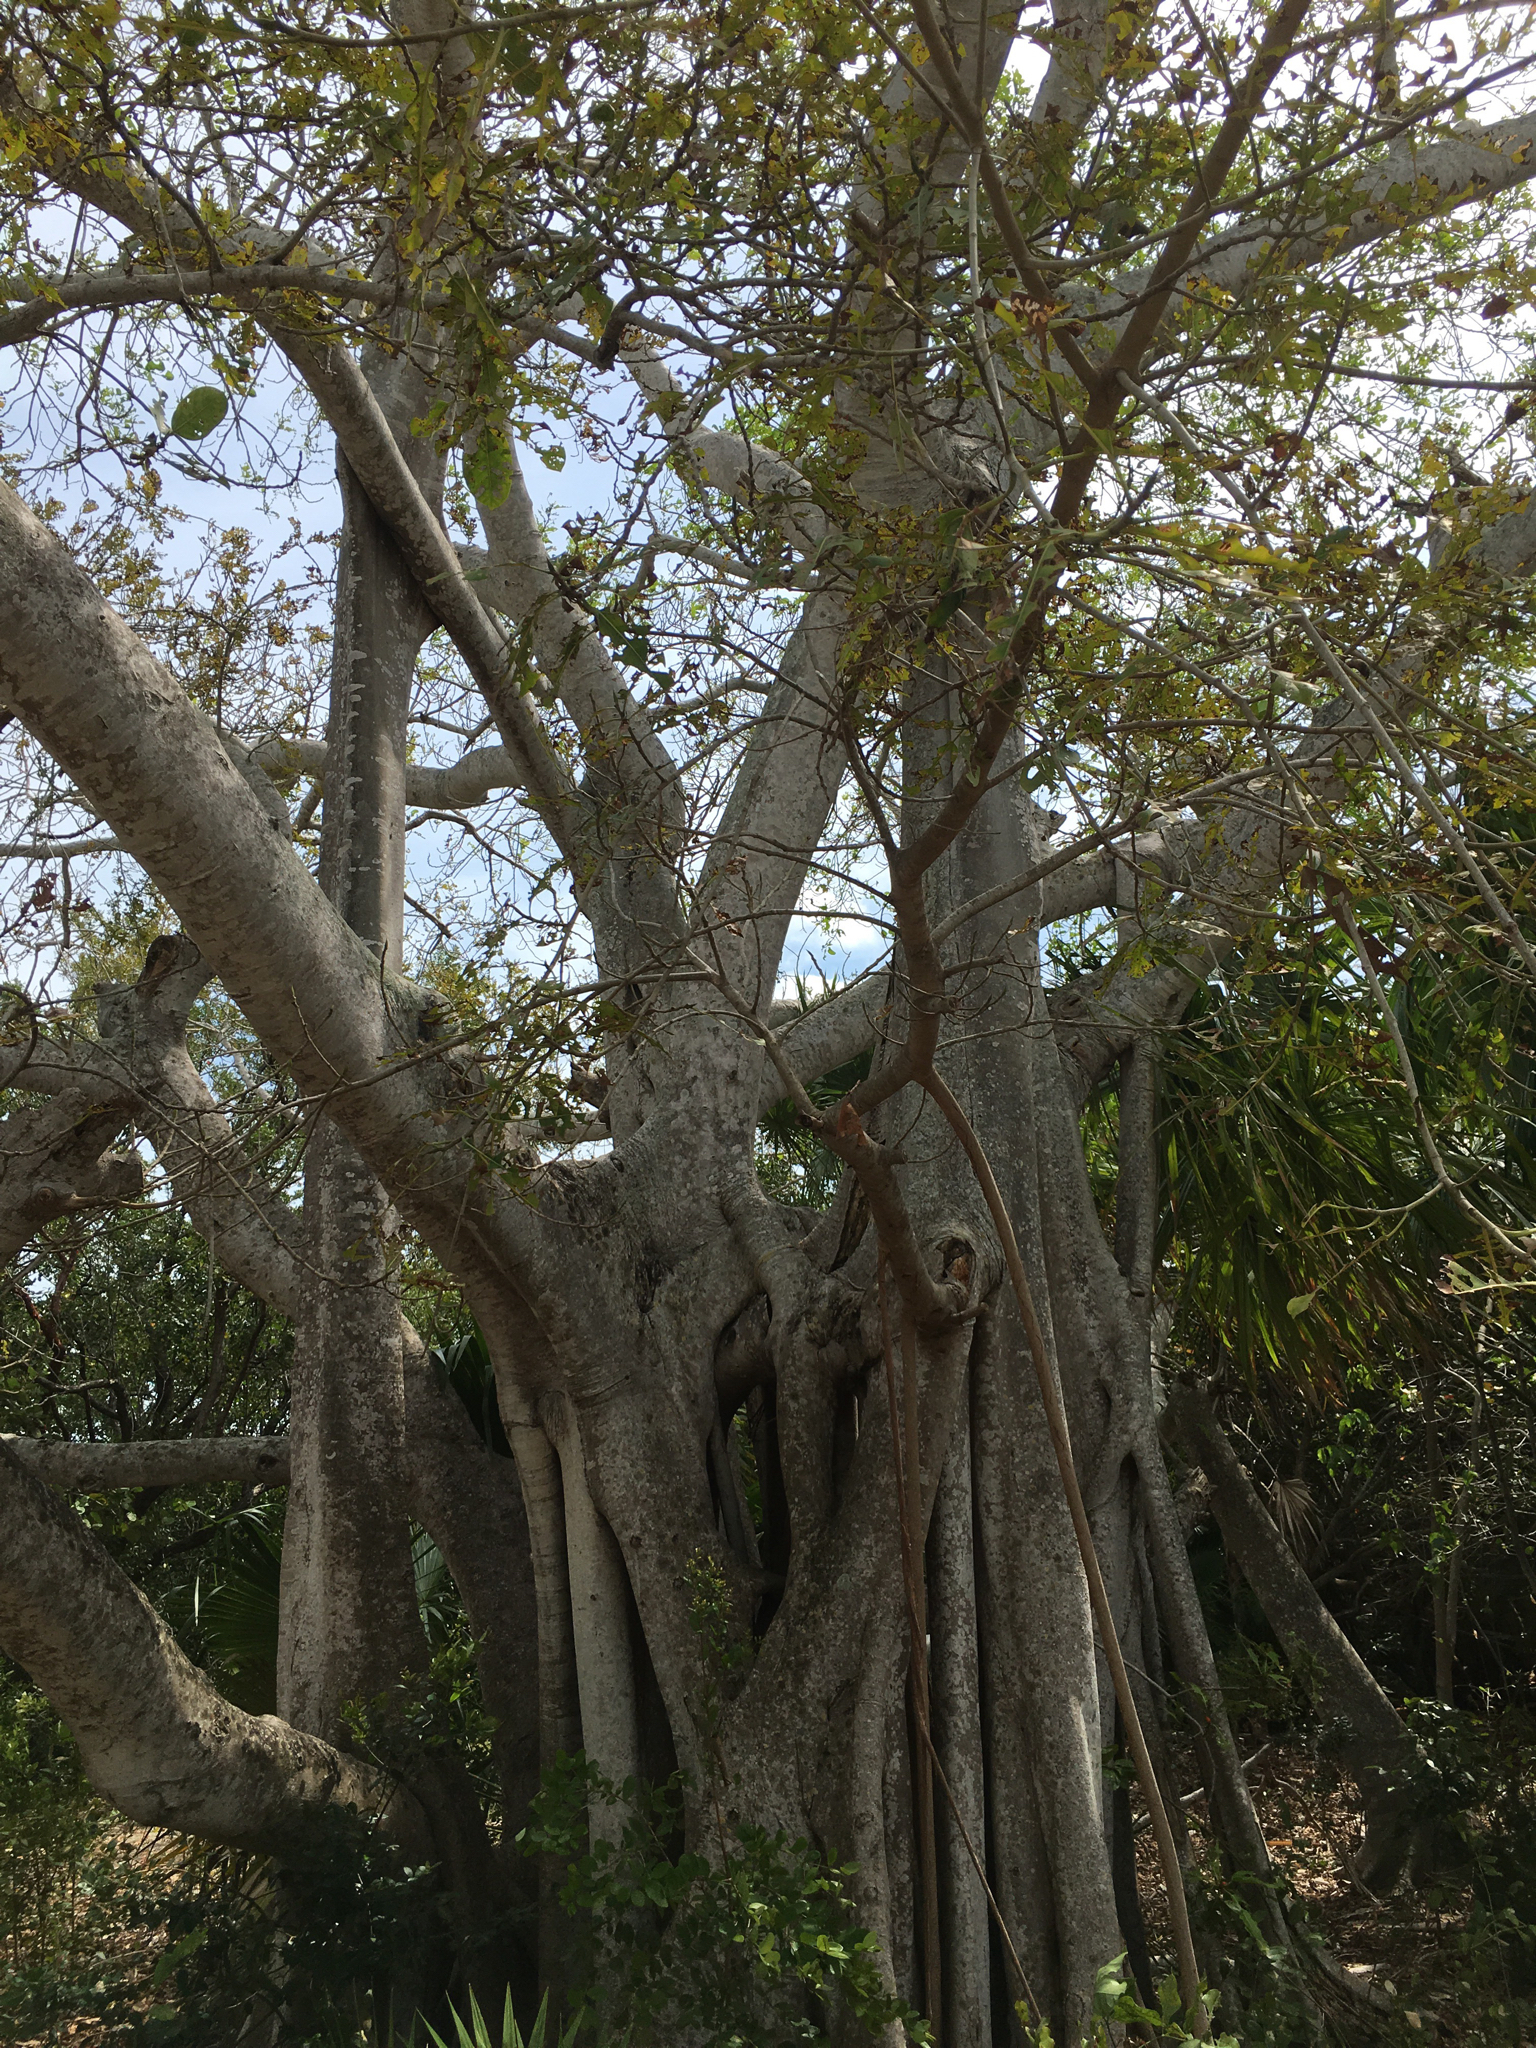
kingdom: Plantae
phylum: Tracheophyta
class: Magnoliopsida
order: Rosales
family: Moraceae
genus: Ficus
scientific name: Ficus aurea
